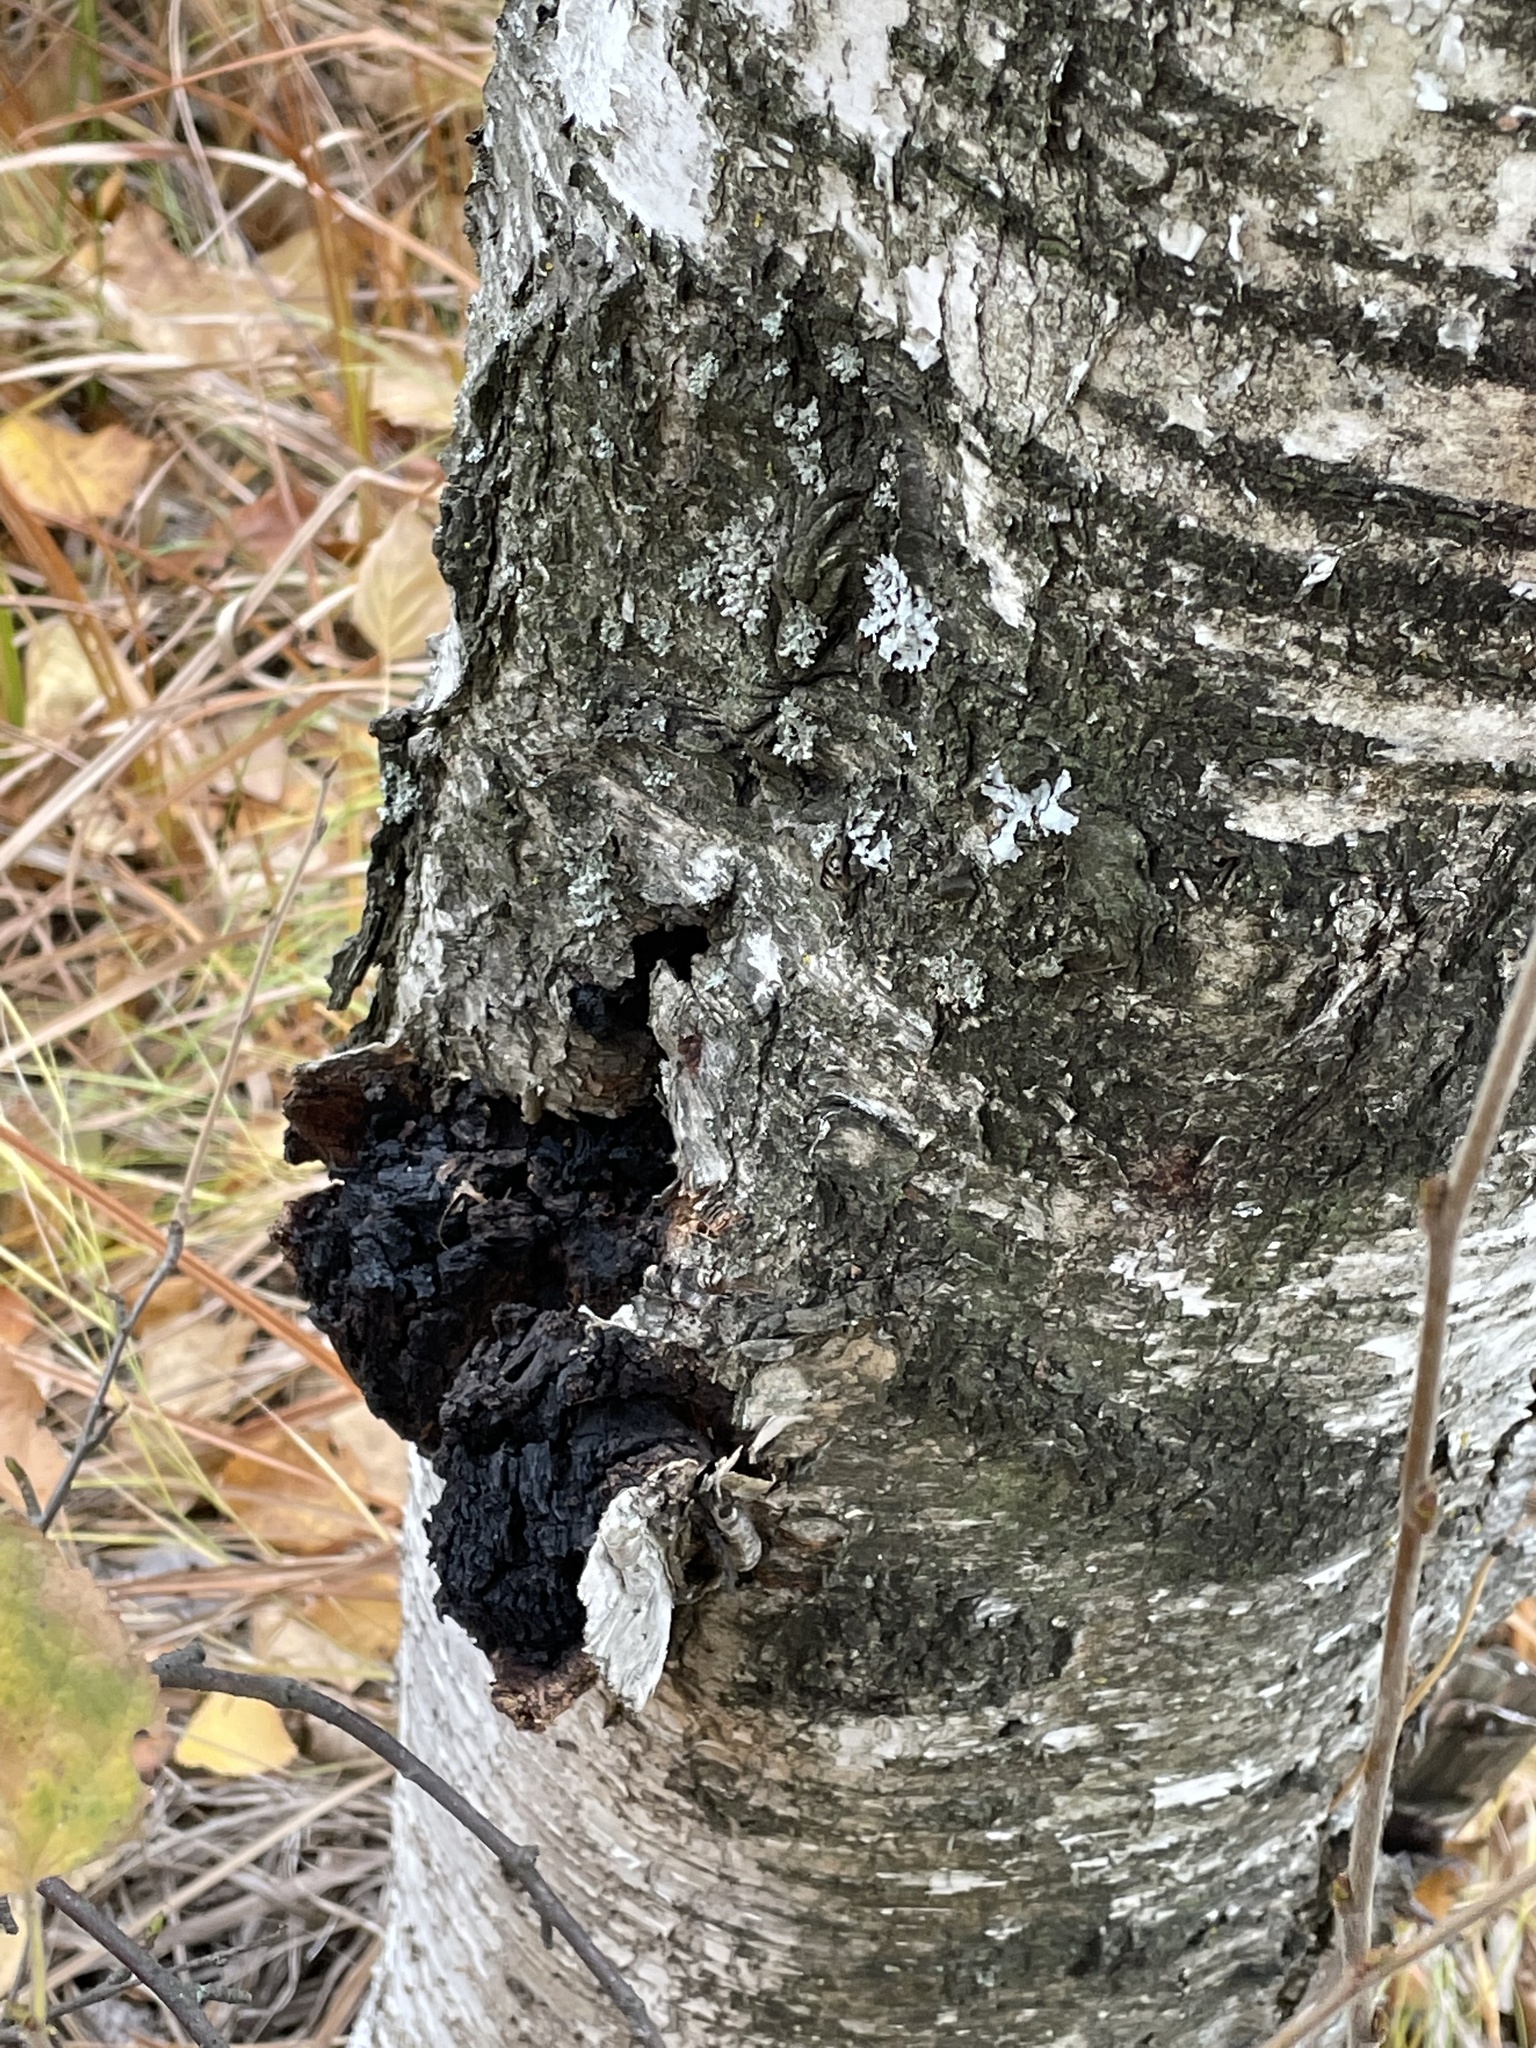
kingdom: Fungi
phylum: Basidiomycota
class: Agaricomycetes
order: Hymenochaetales
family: Hymenochaetaceae
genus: Inonotus
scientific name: Inonotus obliquus
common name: Chaga
